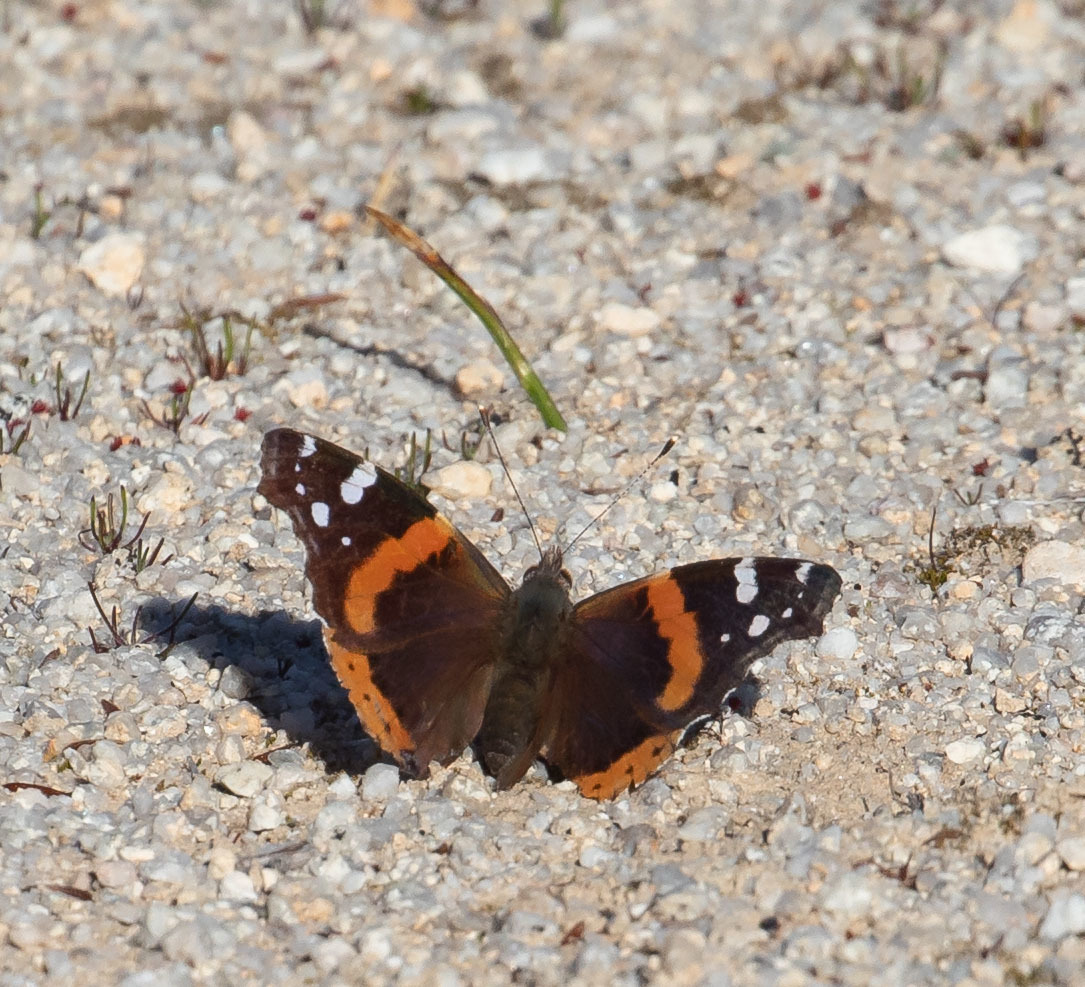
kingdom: Animalia
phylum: Arthropoda
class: Insecta
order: Lepidoptera
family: Nymphalidae
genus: Vanessa
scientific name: Vanessa atalanta
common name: Red admiral
